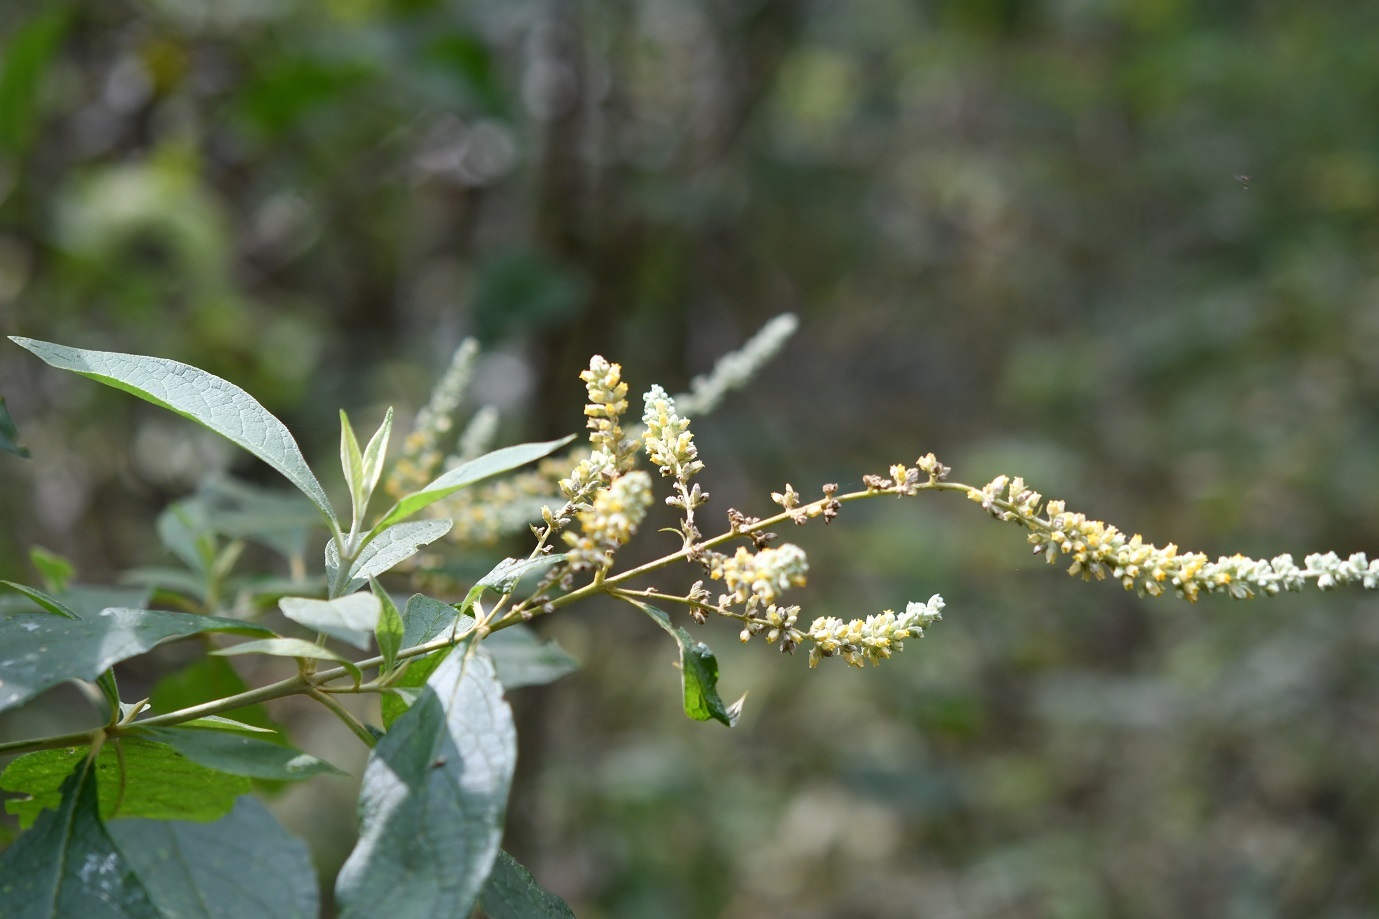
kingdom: Plantae
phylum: Tracheophyta
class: Magnoliopsida
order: Lamiales
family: Scrophulariaceae
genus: Buddleja
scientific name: Buddleja americana
